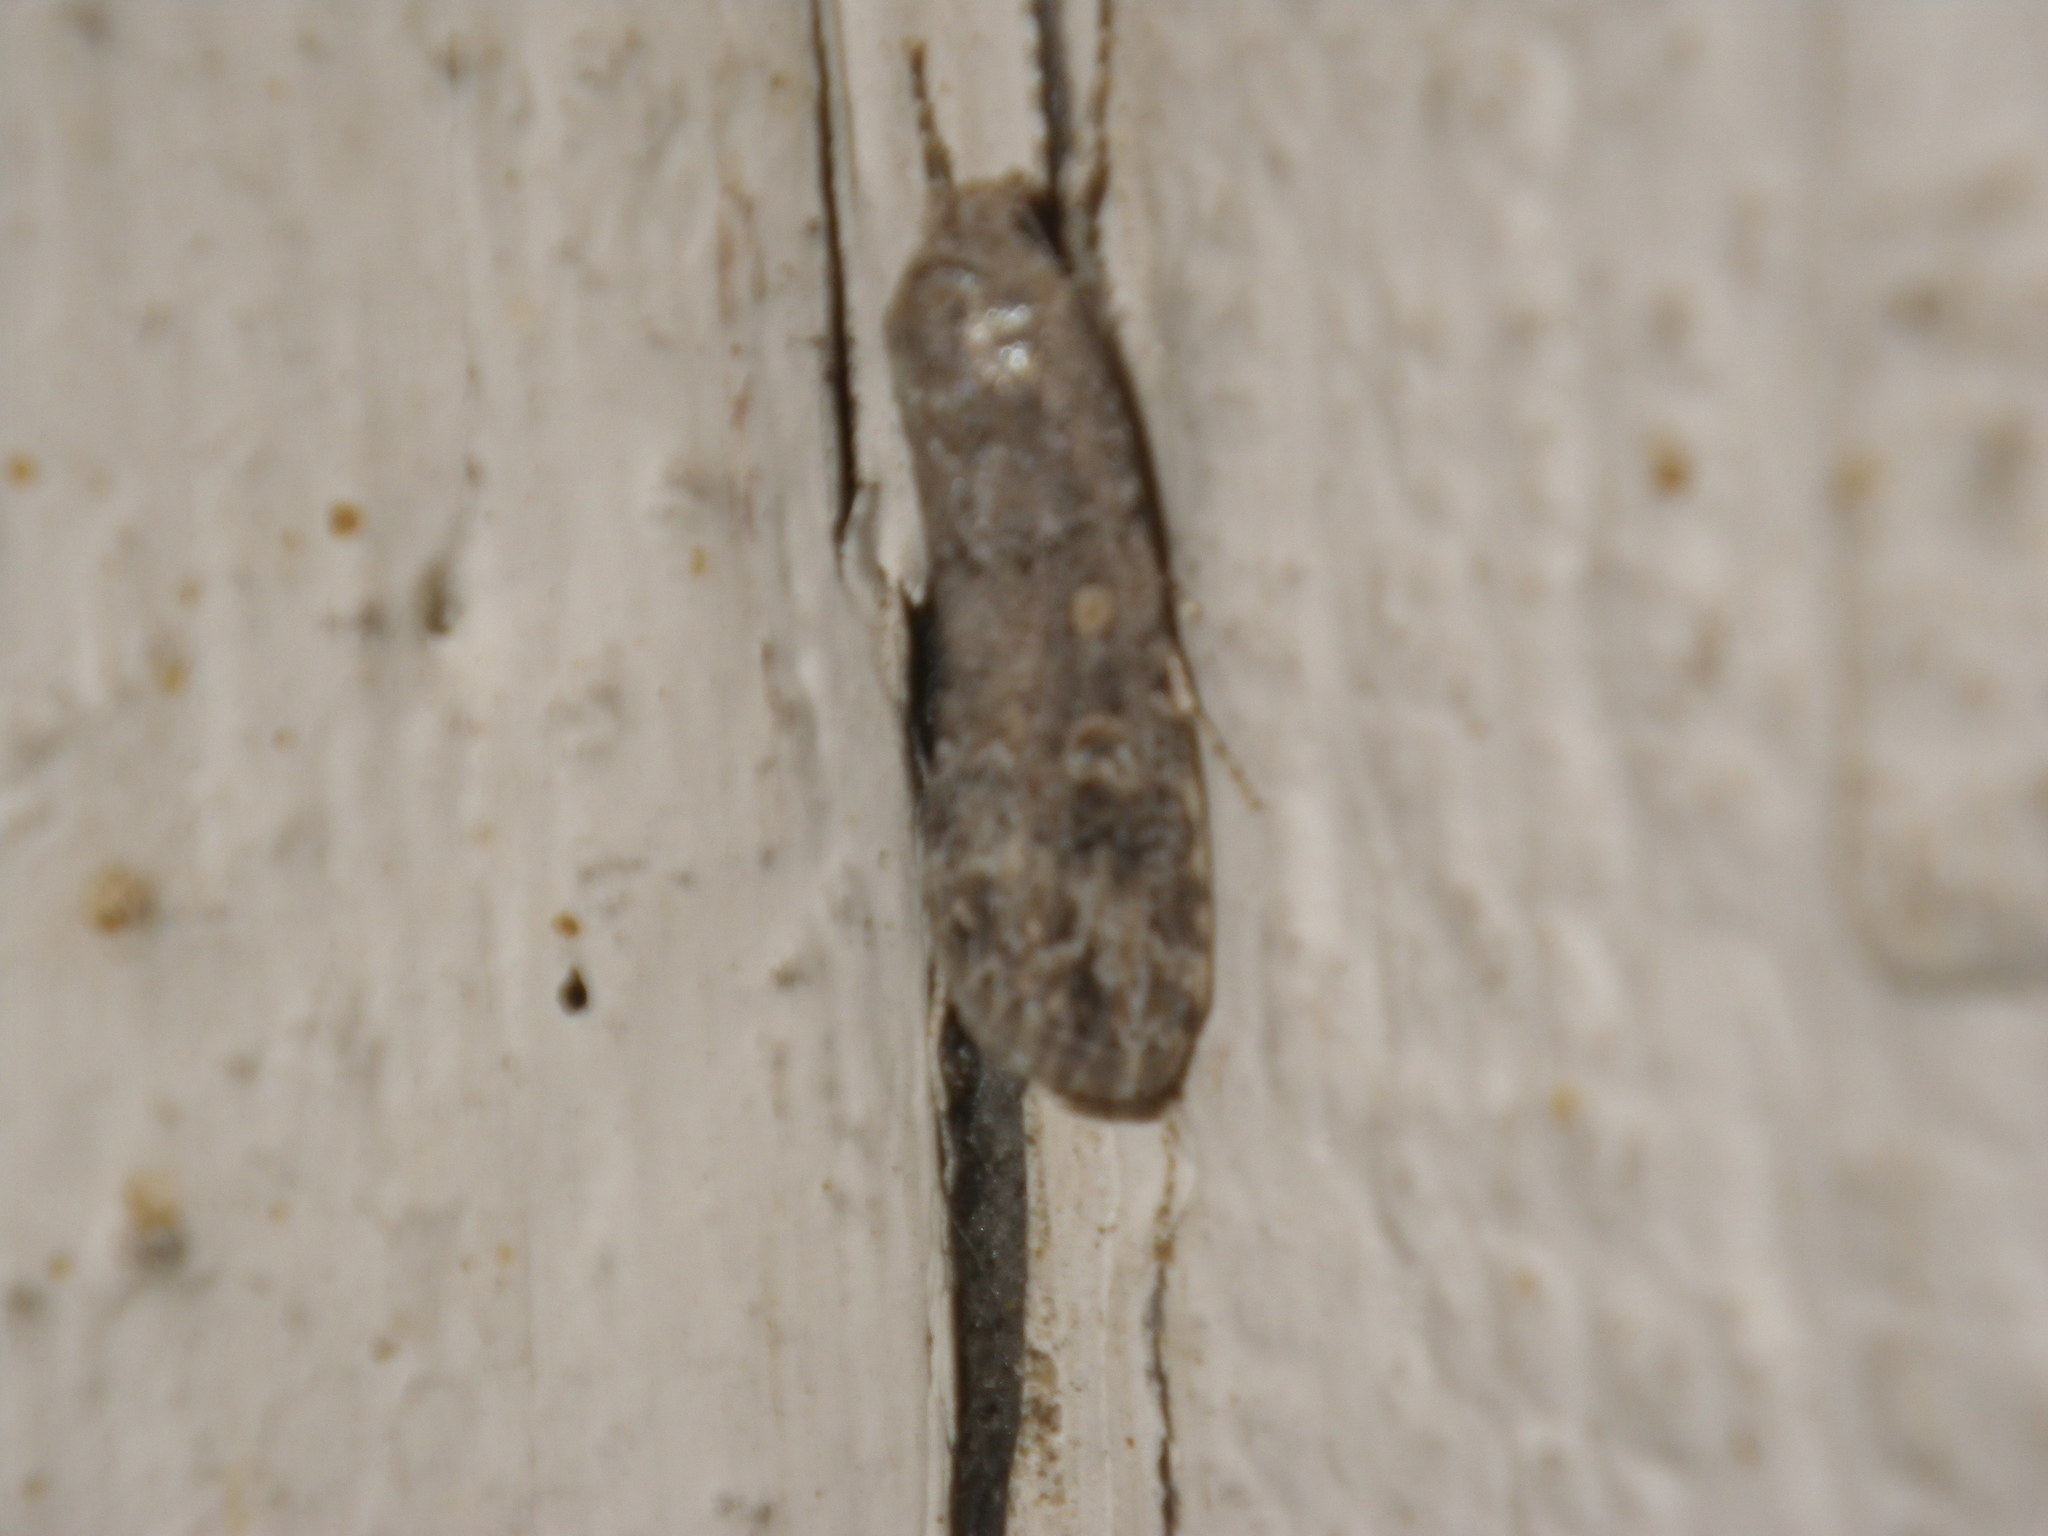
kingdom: Animalia
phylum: Arthropoda
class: Insecta
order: Lepidoptera
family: Noctuidae
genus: Spodoptera
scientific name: Spodoptera exigua
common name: Beet armyworm
